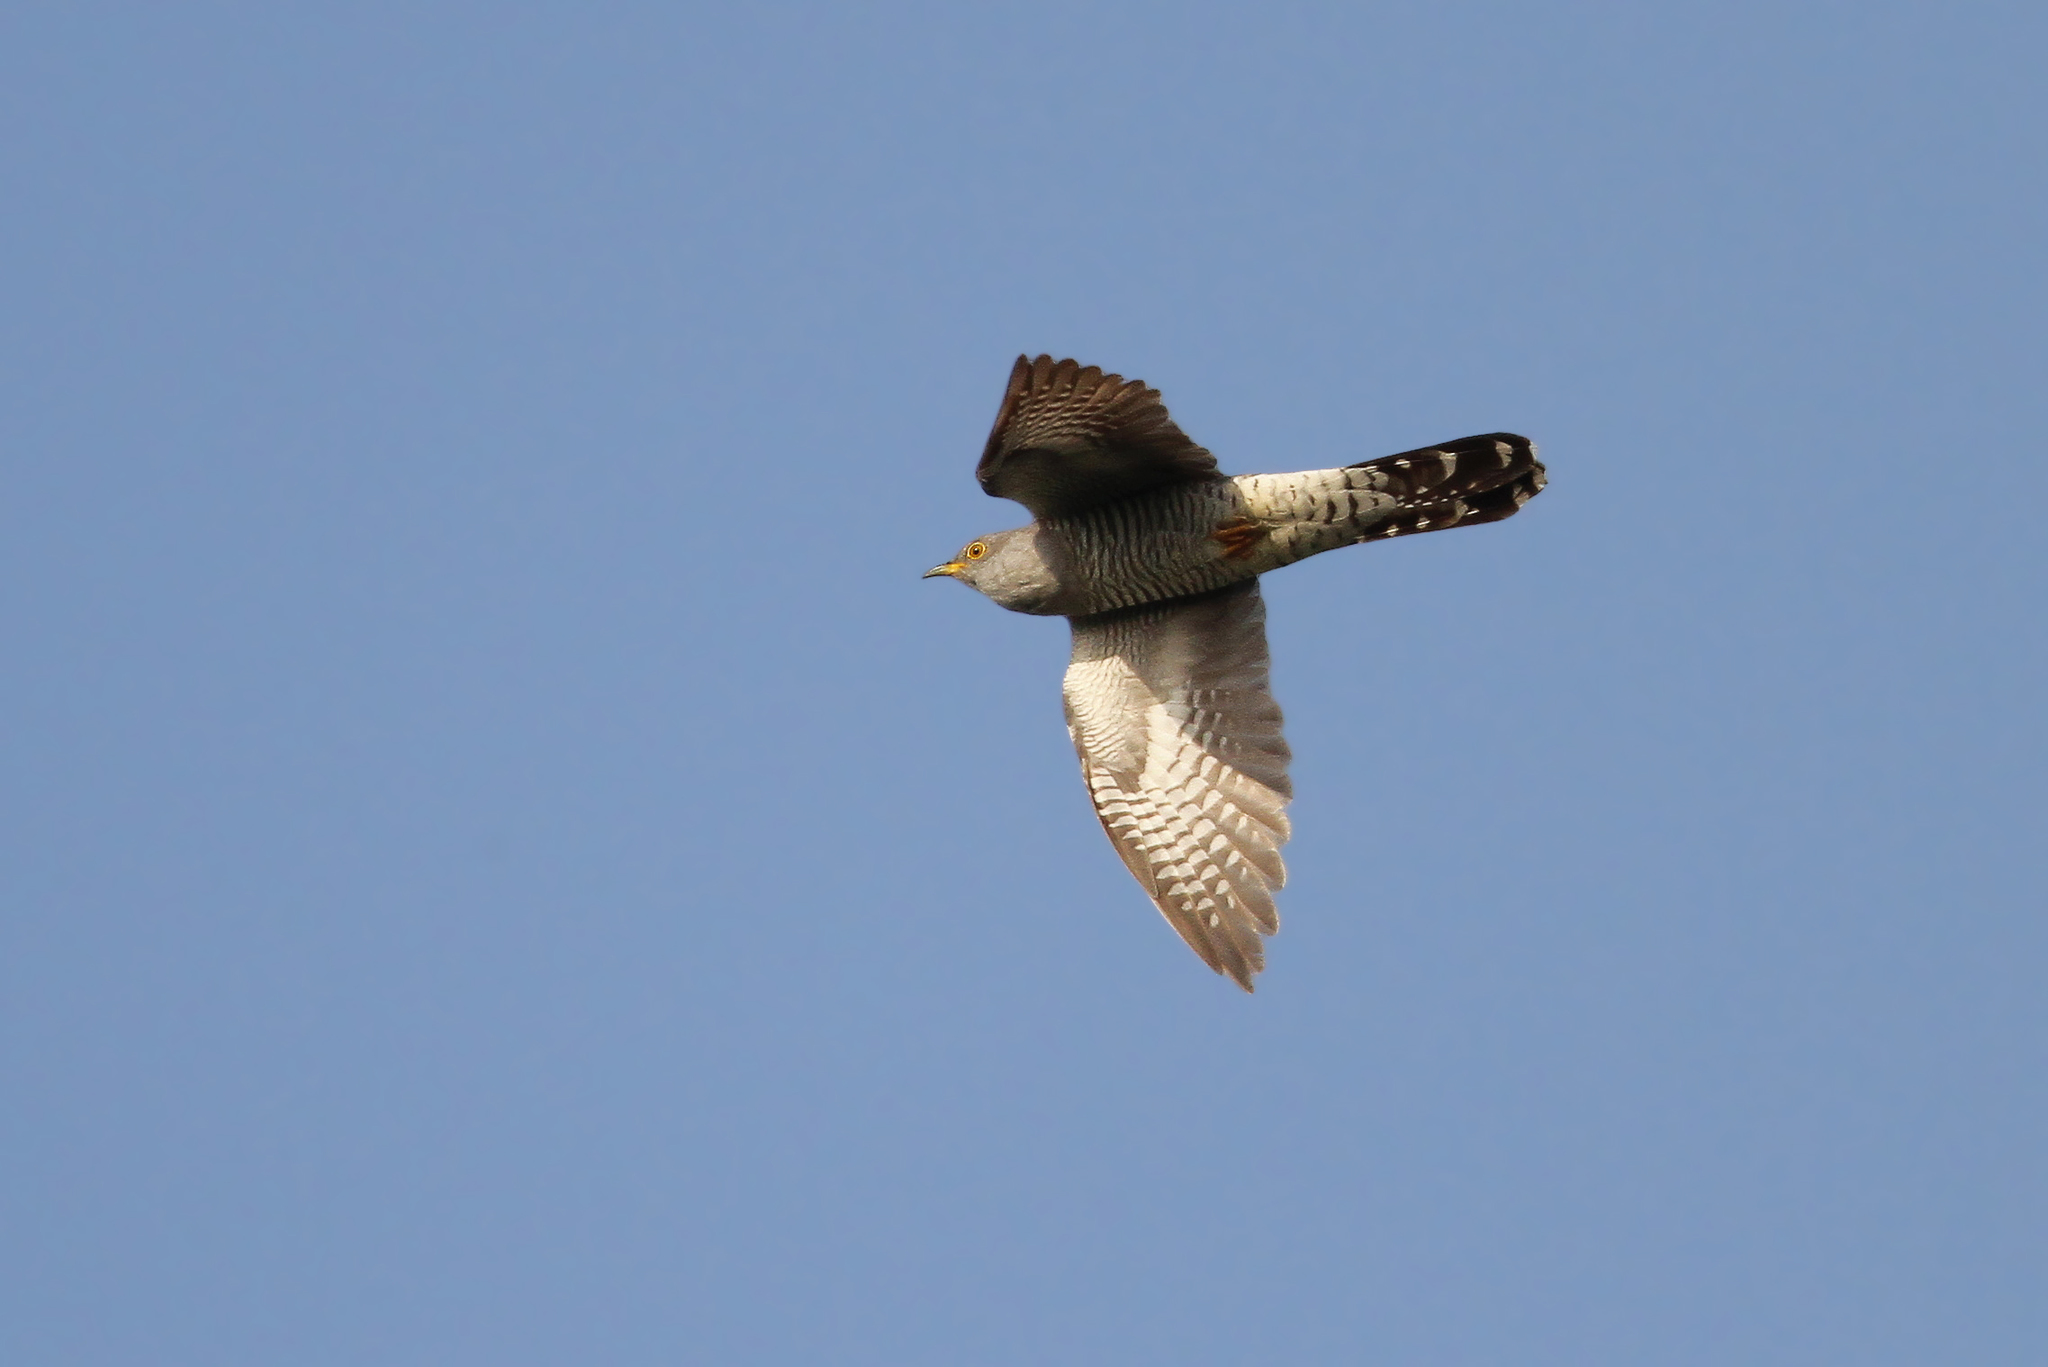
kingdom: Animalia
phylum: Chordata
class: Aves
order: Cuculiformes
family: Cuculidae
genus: Cuculus
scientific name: Cuculus canorus
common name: Common cuckoo
